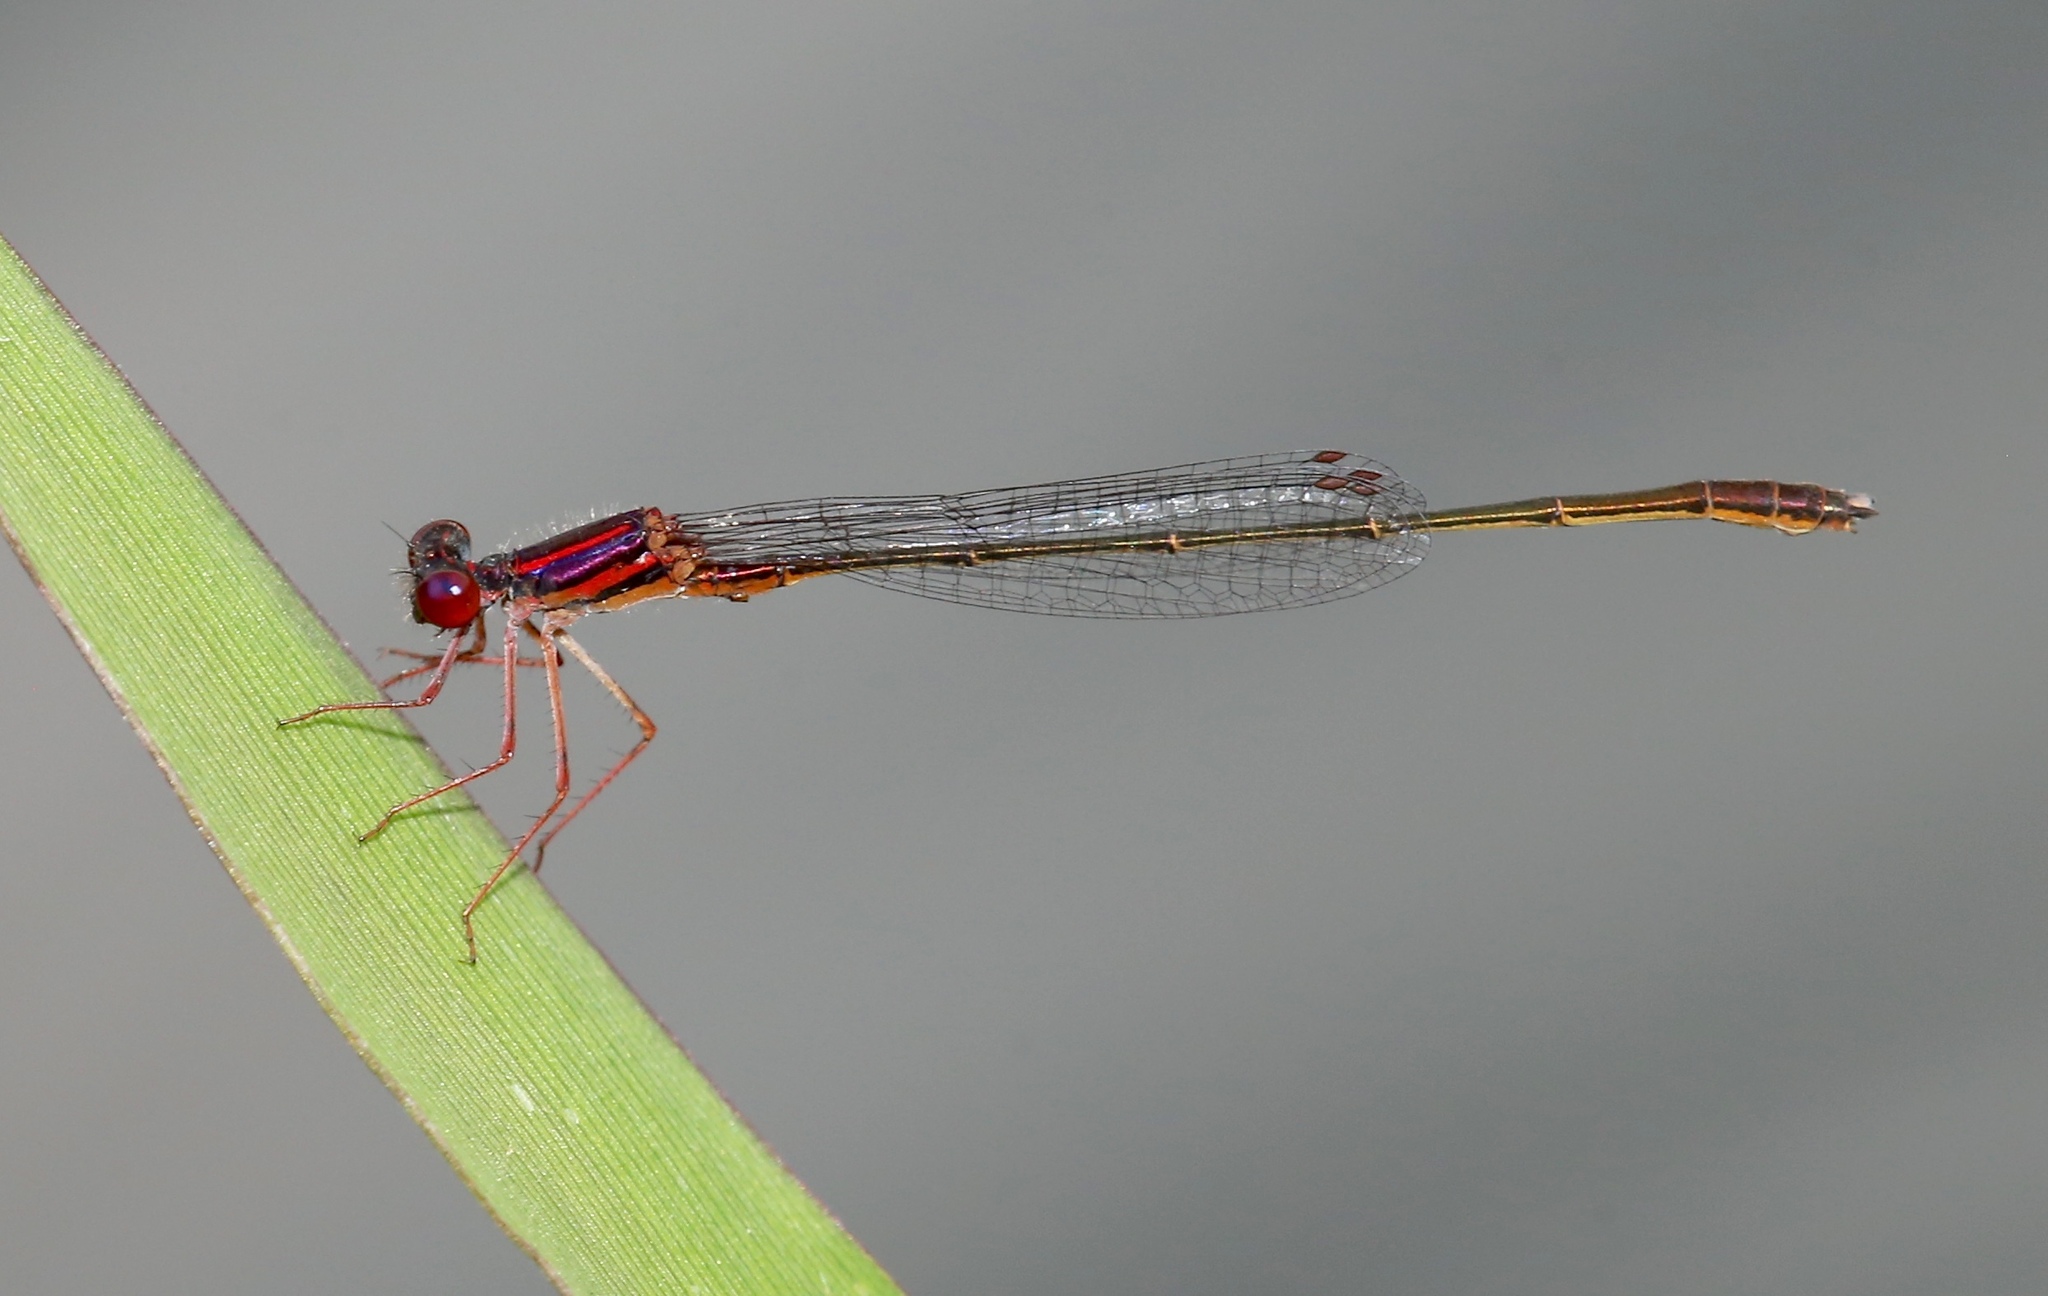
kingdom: Animalia
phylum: Arthropoda
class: Insecta
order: Odonata
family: Coenagrionidae
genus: Enallagma
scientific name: Enallagma dubium
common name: Burgundy bluet
